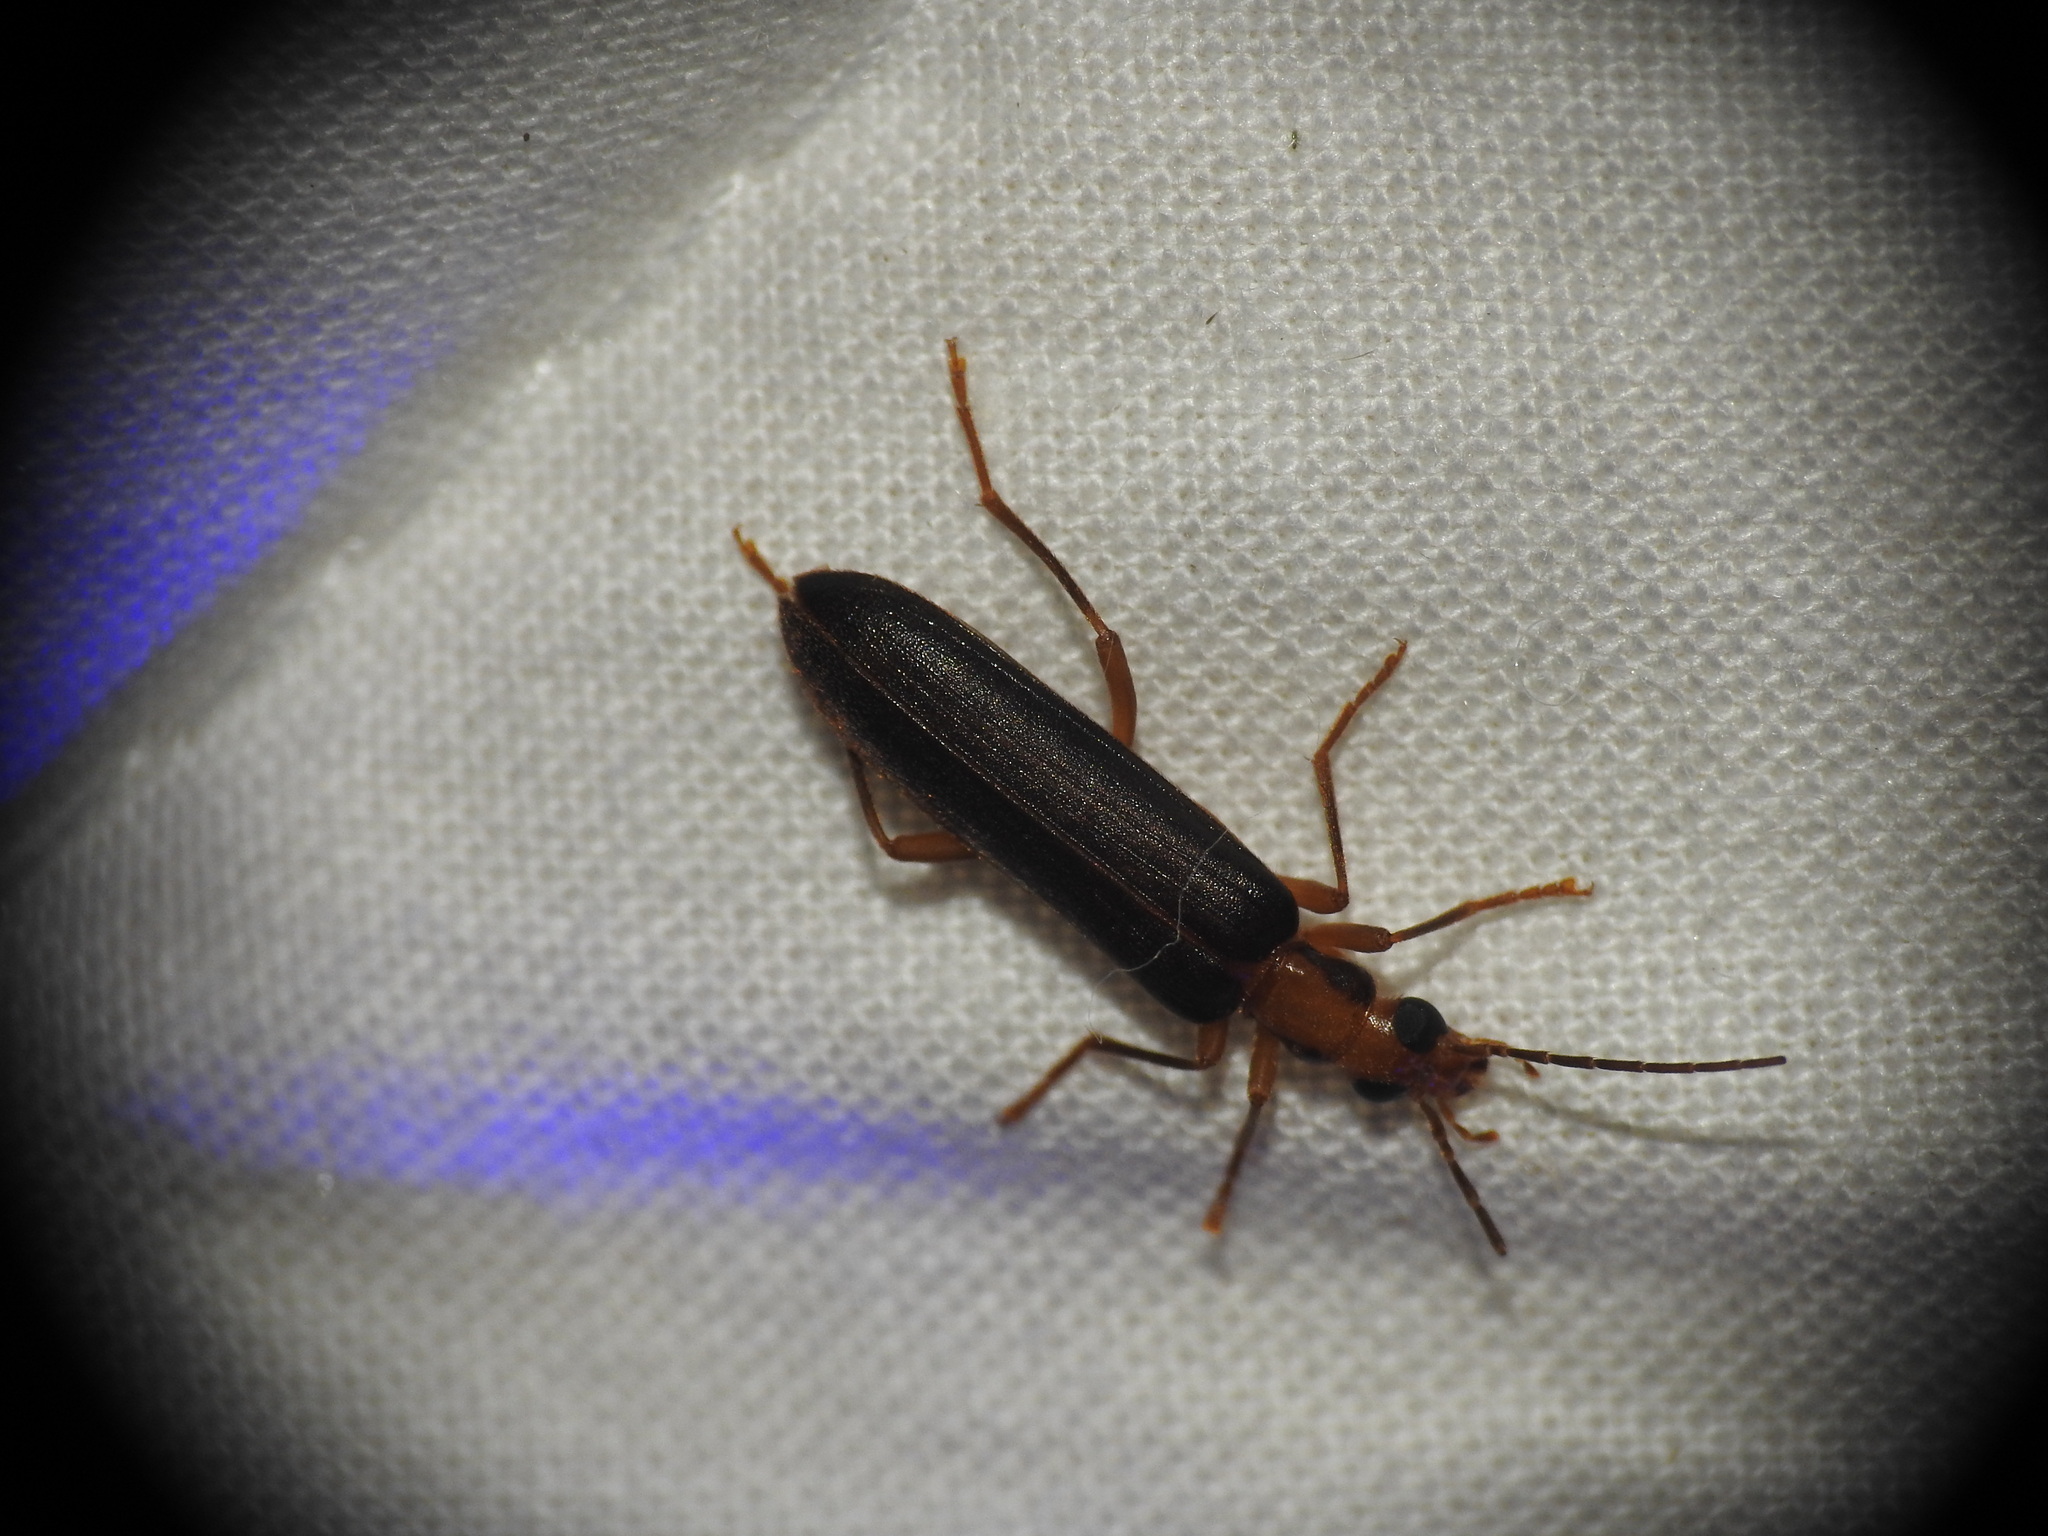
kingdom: Animalia
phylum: Arthropoda
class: Insecta
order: Coleoptera
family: Oedemeridae
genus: Nacerdes
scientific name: Nacerdes carniolica
